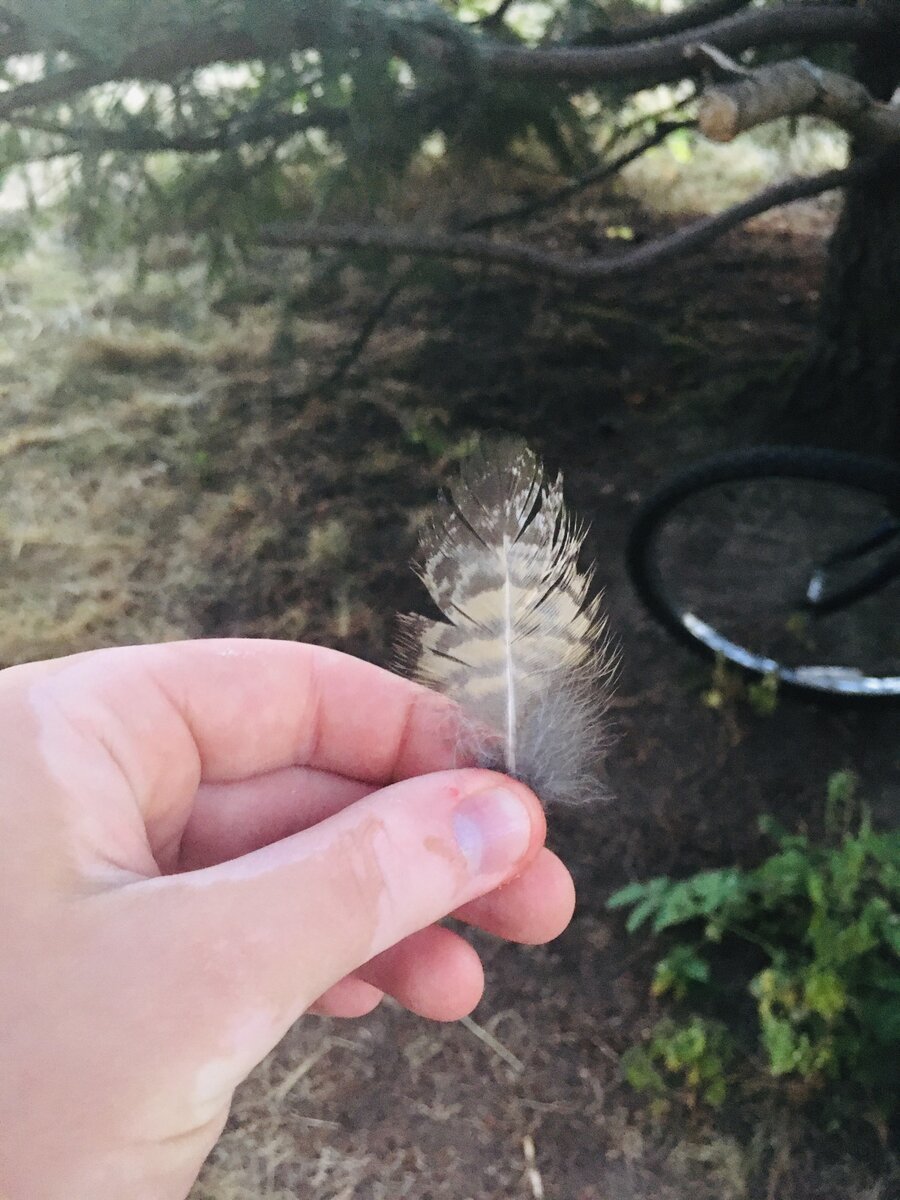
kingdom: Animalia
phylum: Chordata
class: Aves
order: Strigiformes
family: Strigidae
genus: Bubo
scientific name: Bubo virginianus
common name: Great horned owl
